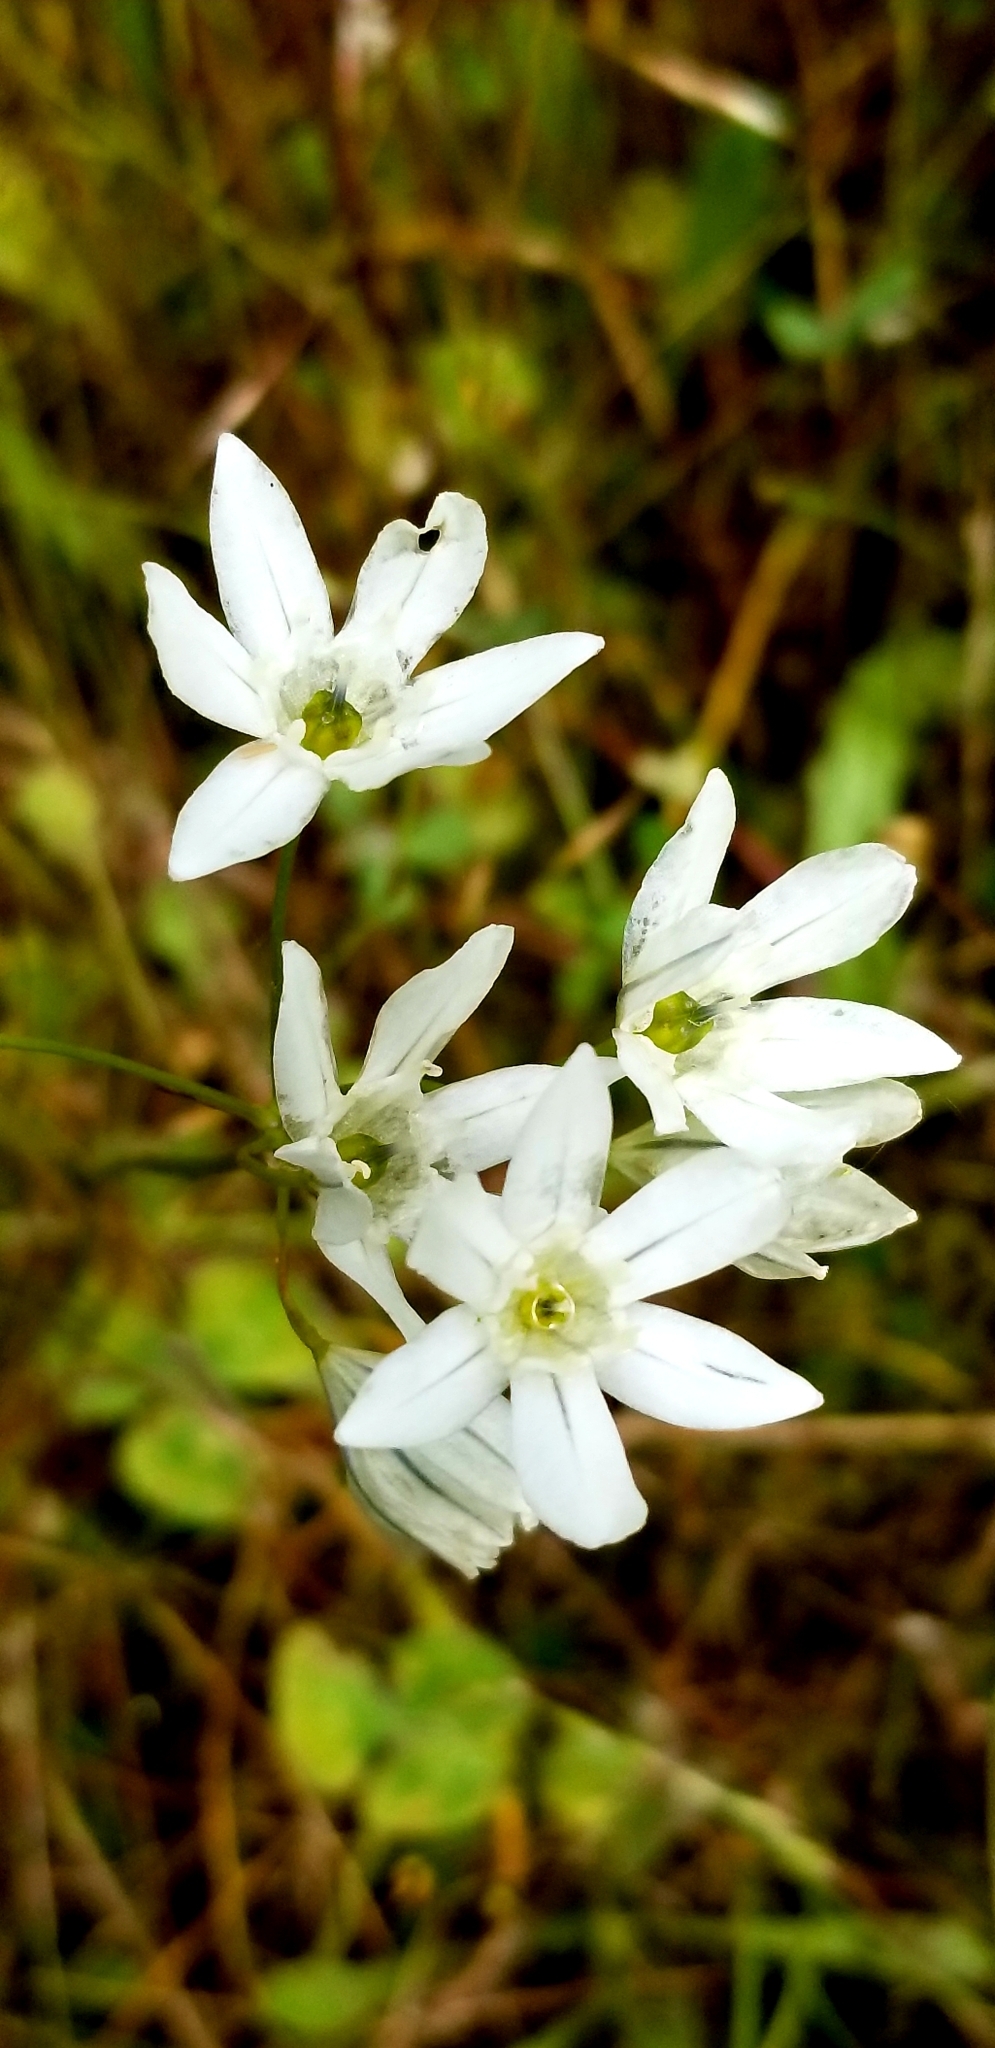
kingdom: Plantae
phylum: Tracheophyta
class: Liliopsida
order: Asparagales
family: Asparagaceae
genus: Triteleia
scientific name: Triteleia hyacinthina
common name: White brodiaea
